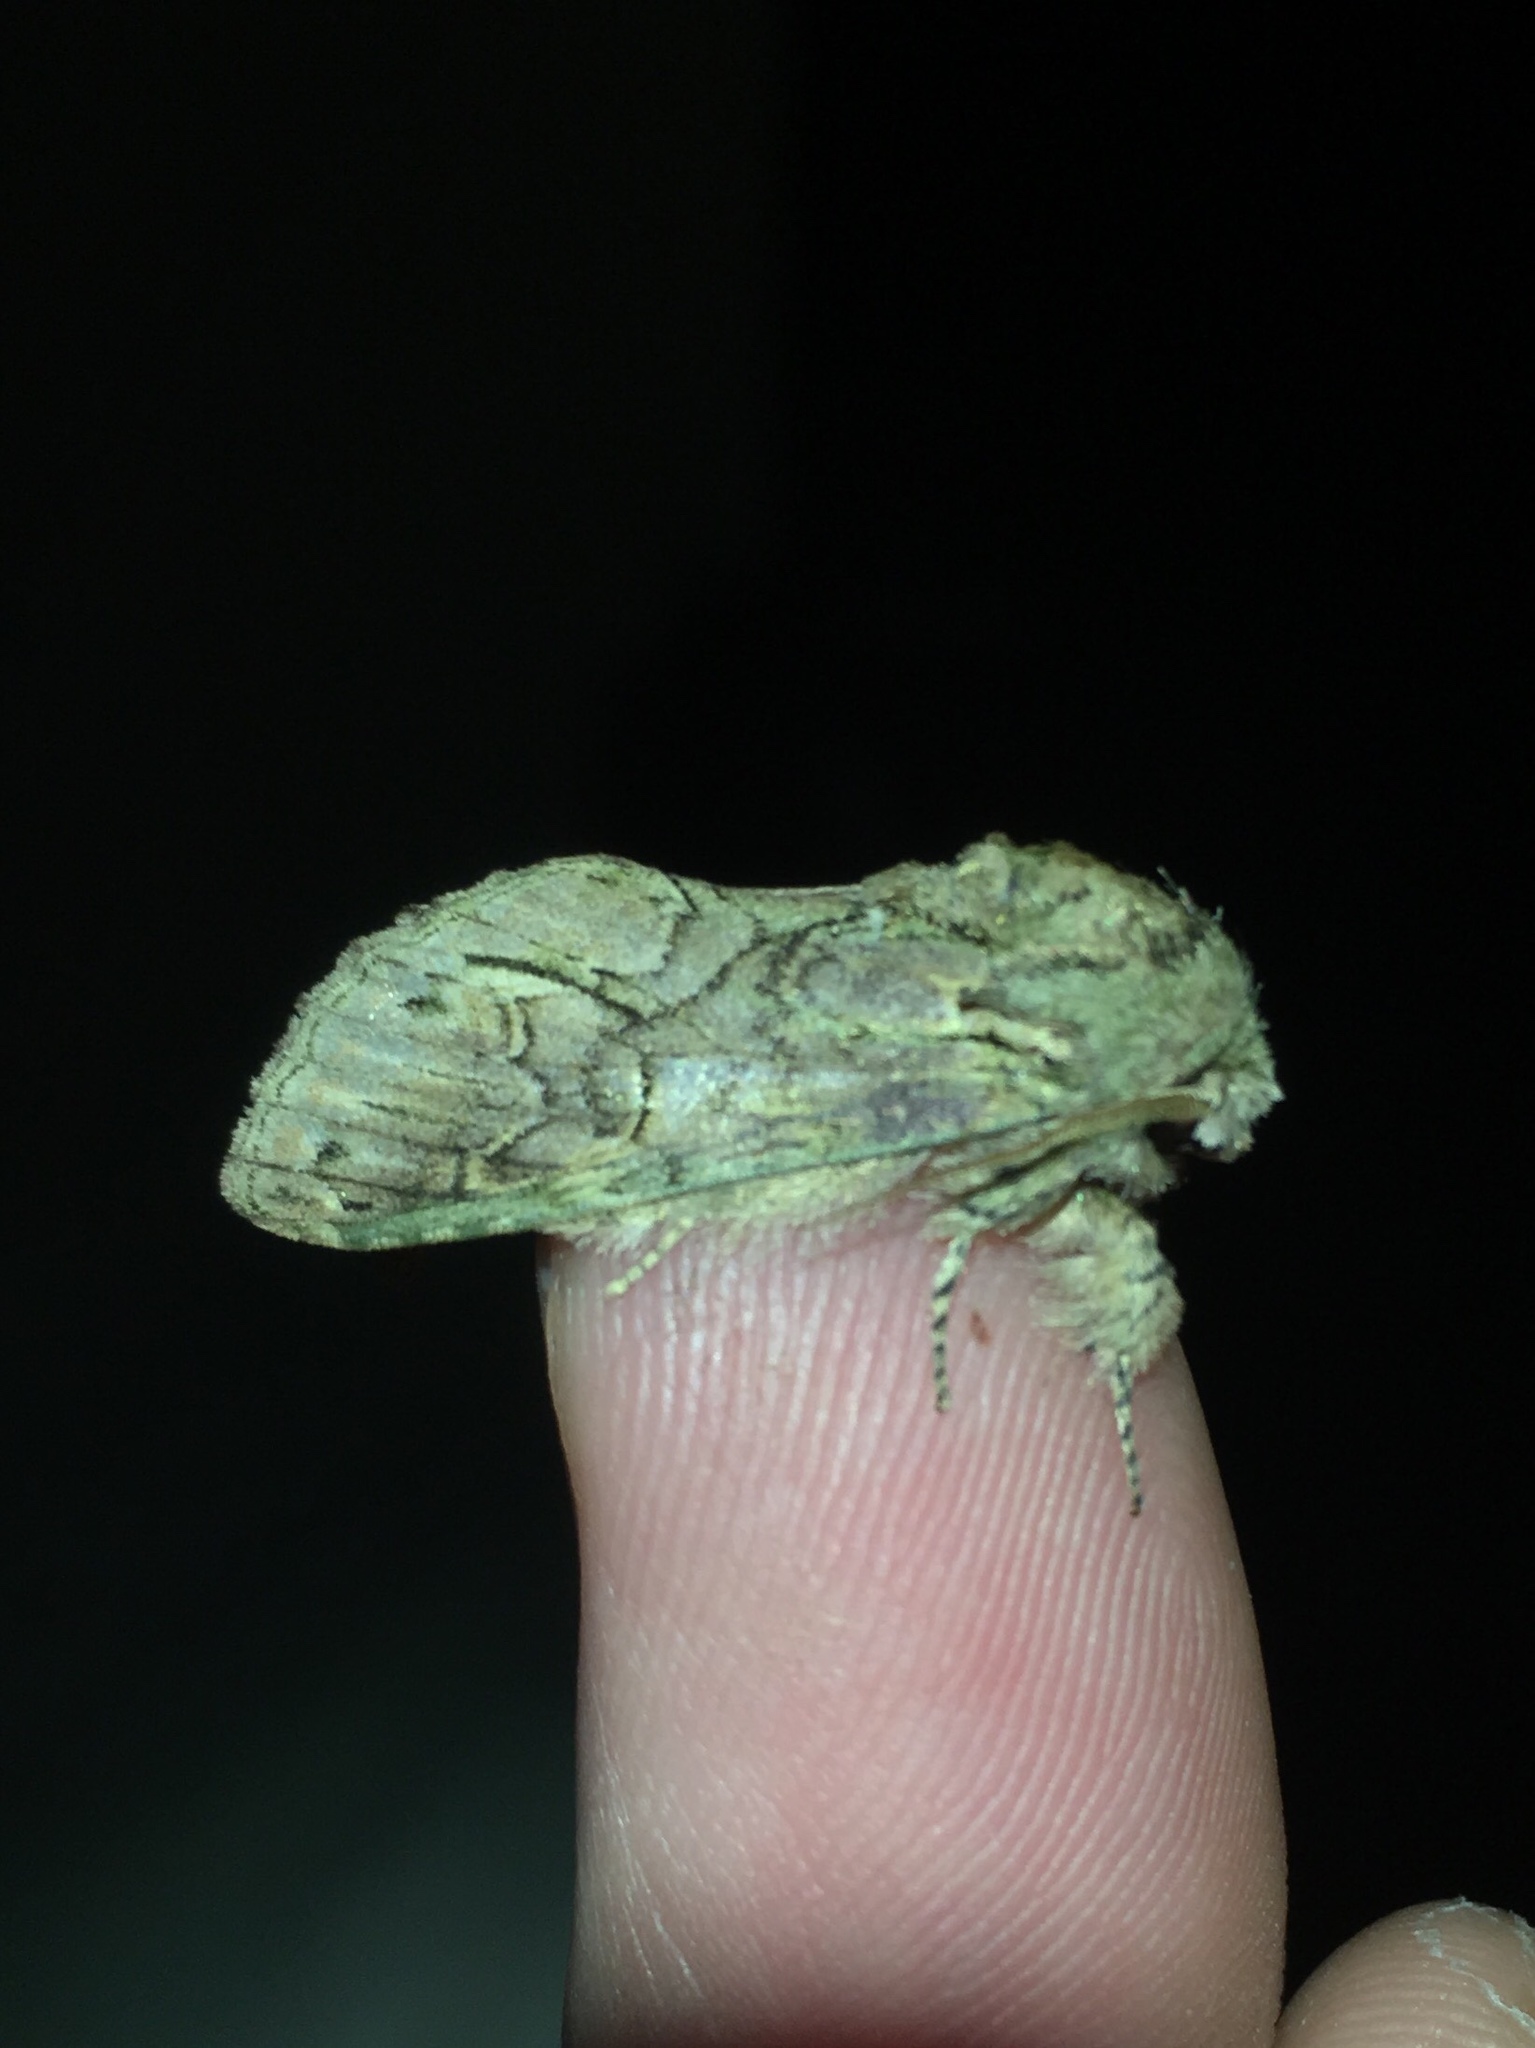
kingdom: Animalia
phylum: Arthropoda
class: Insecta
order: Lepidoptera
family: Notodontidae
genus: Disphragis
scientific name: Disphragis
